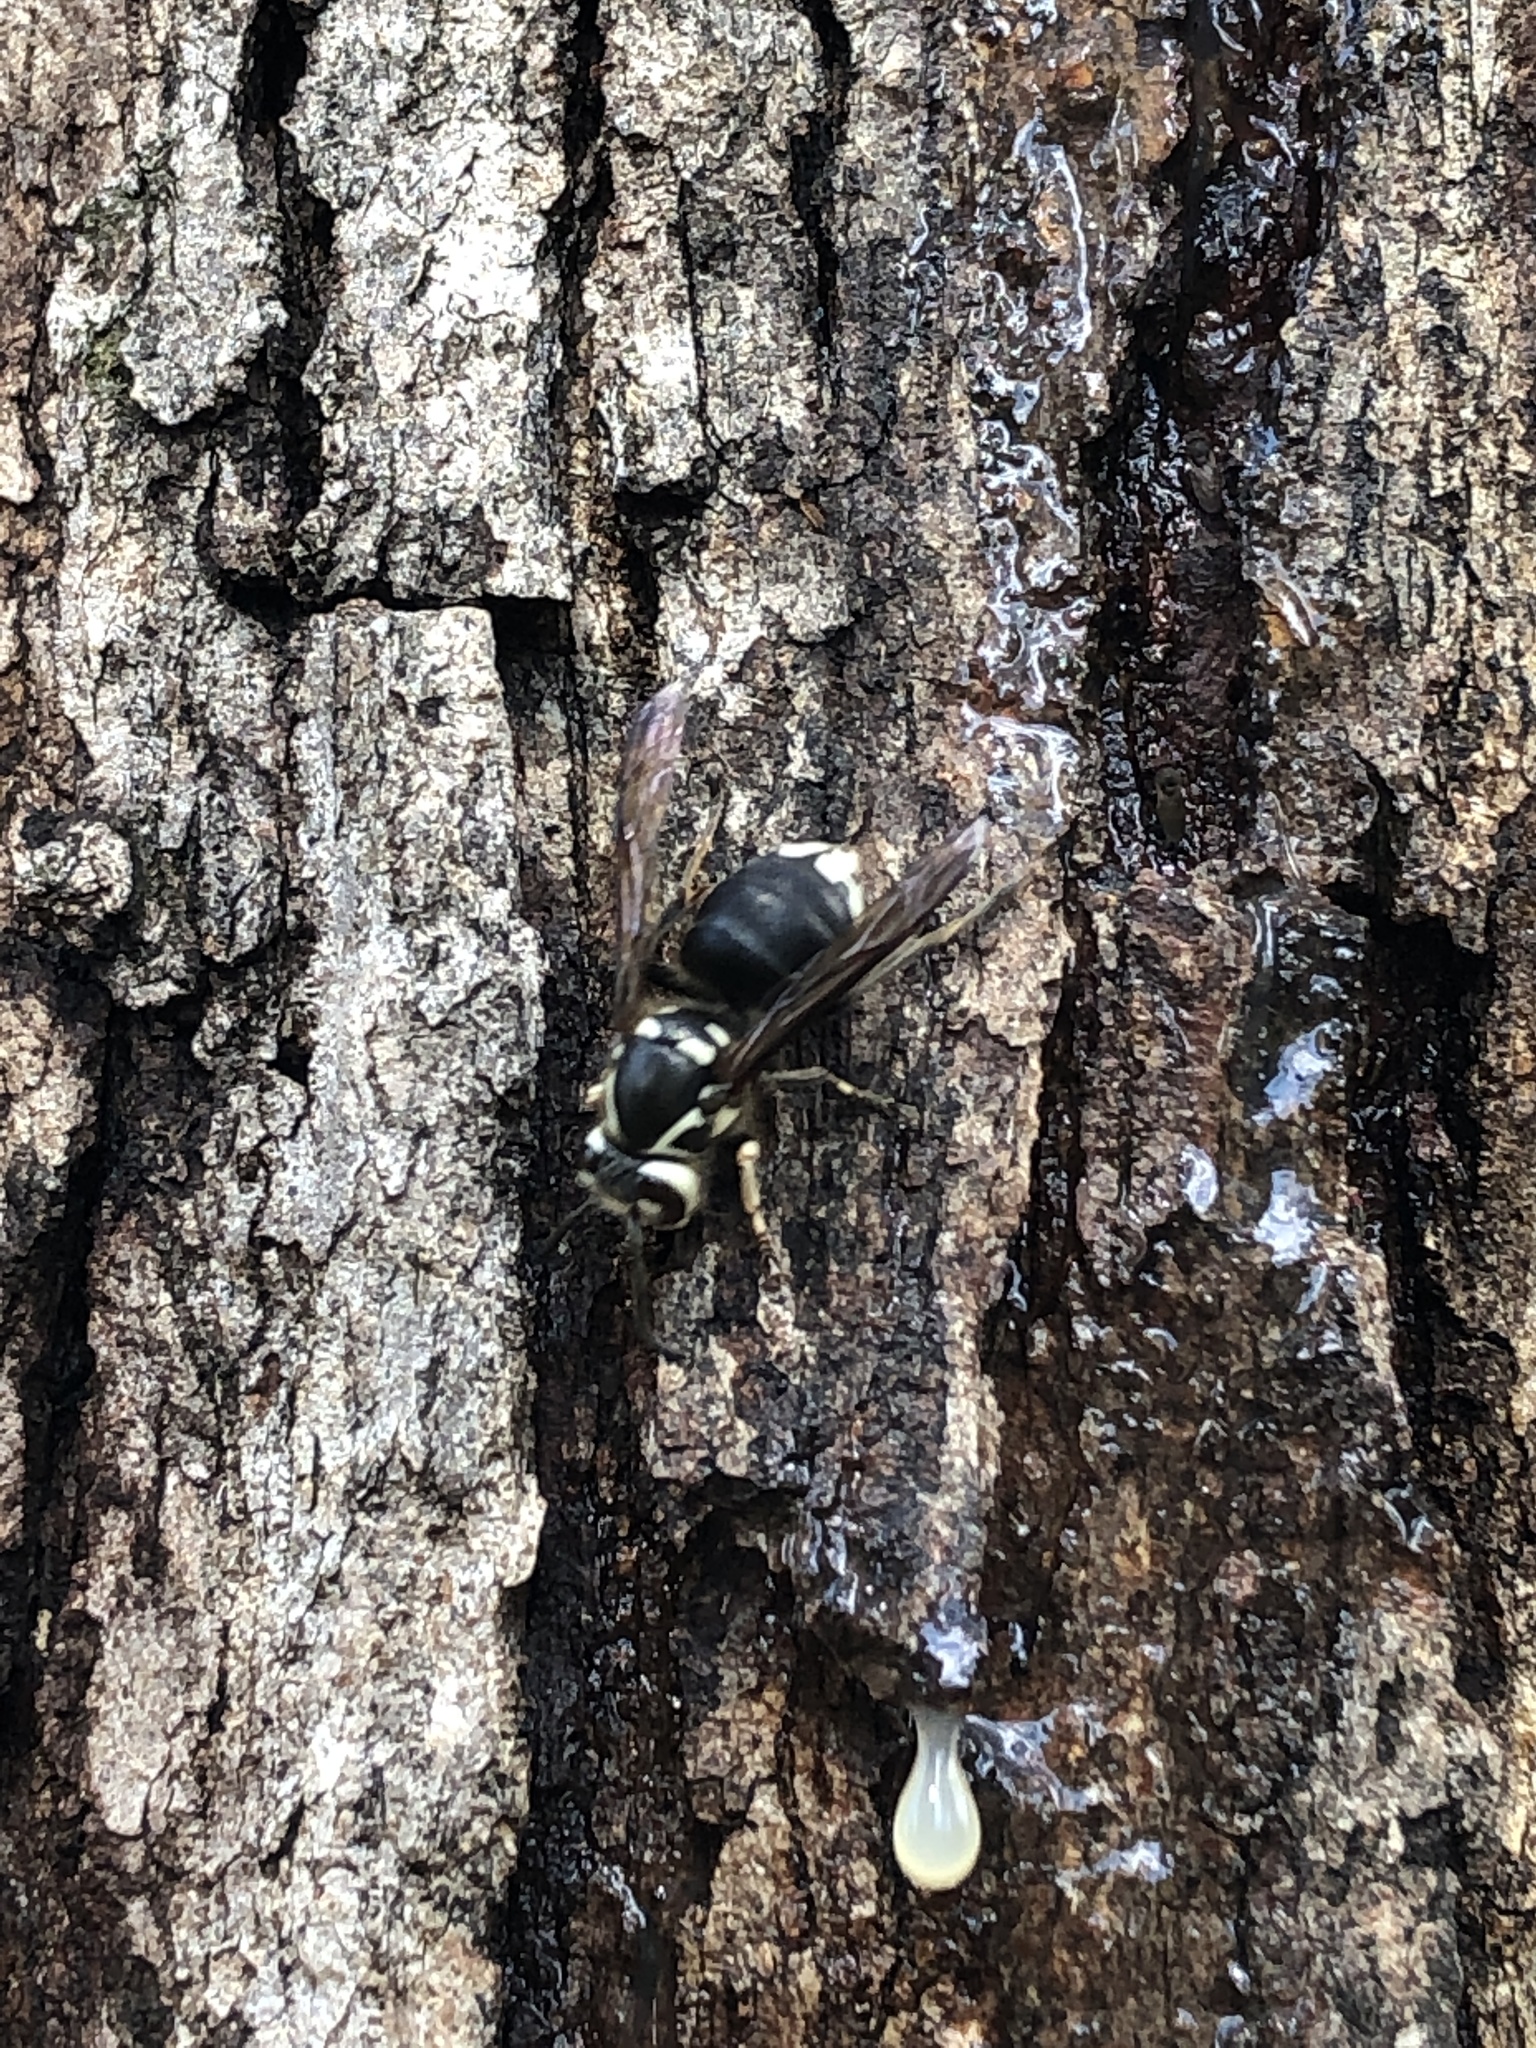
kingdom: Animalia
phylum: Arthropoda
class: Insecta
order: Hymenoptera
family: Vespidae
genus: Dolichovespula
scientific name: Dolichovespula maculata
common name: Bald-faced hornet
